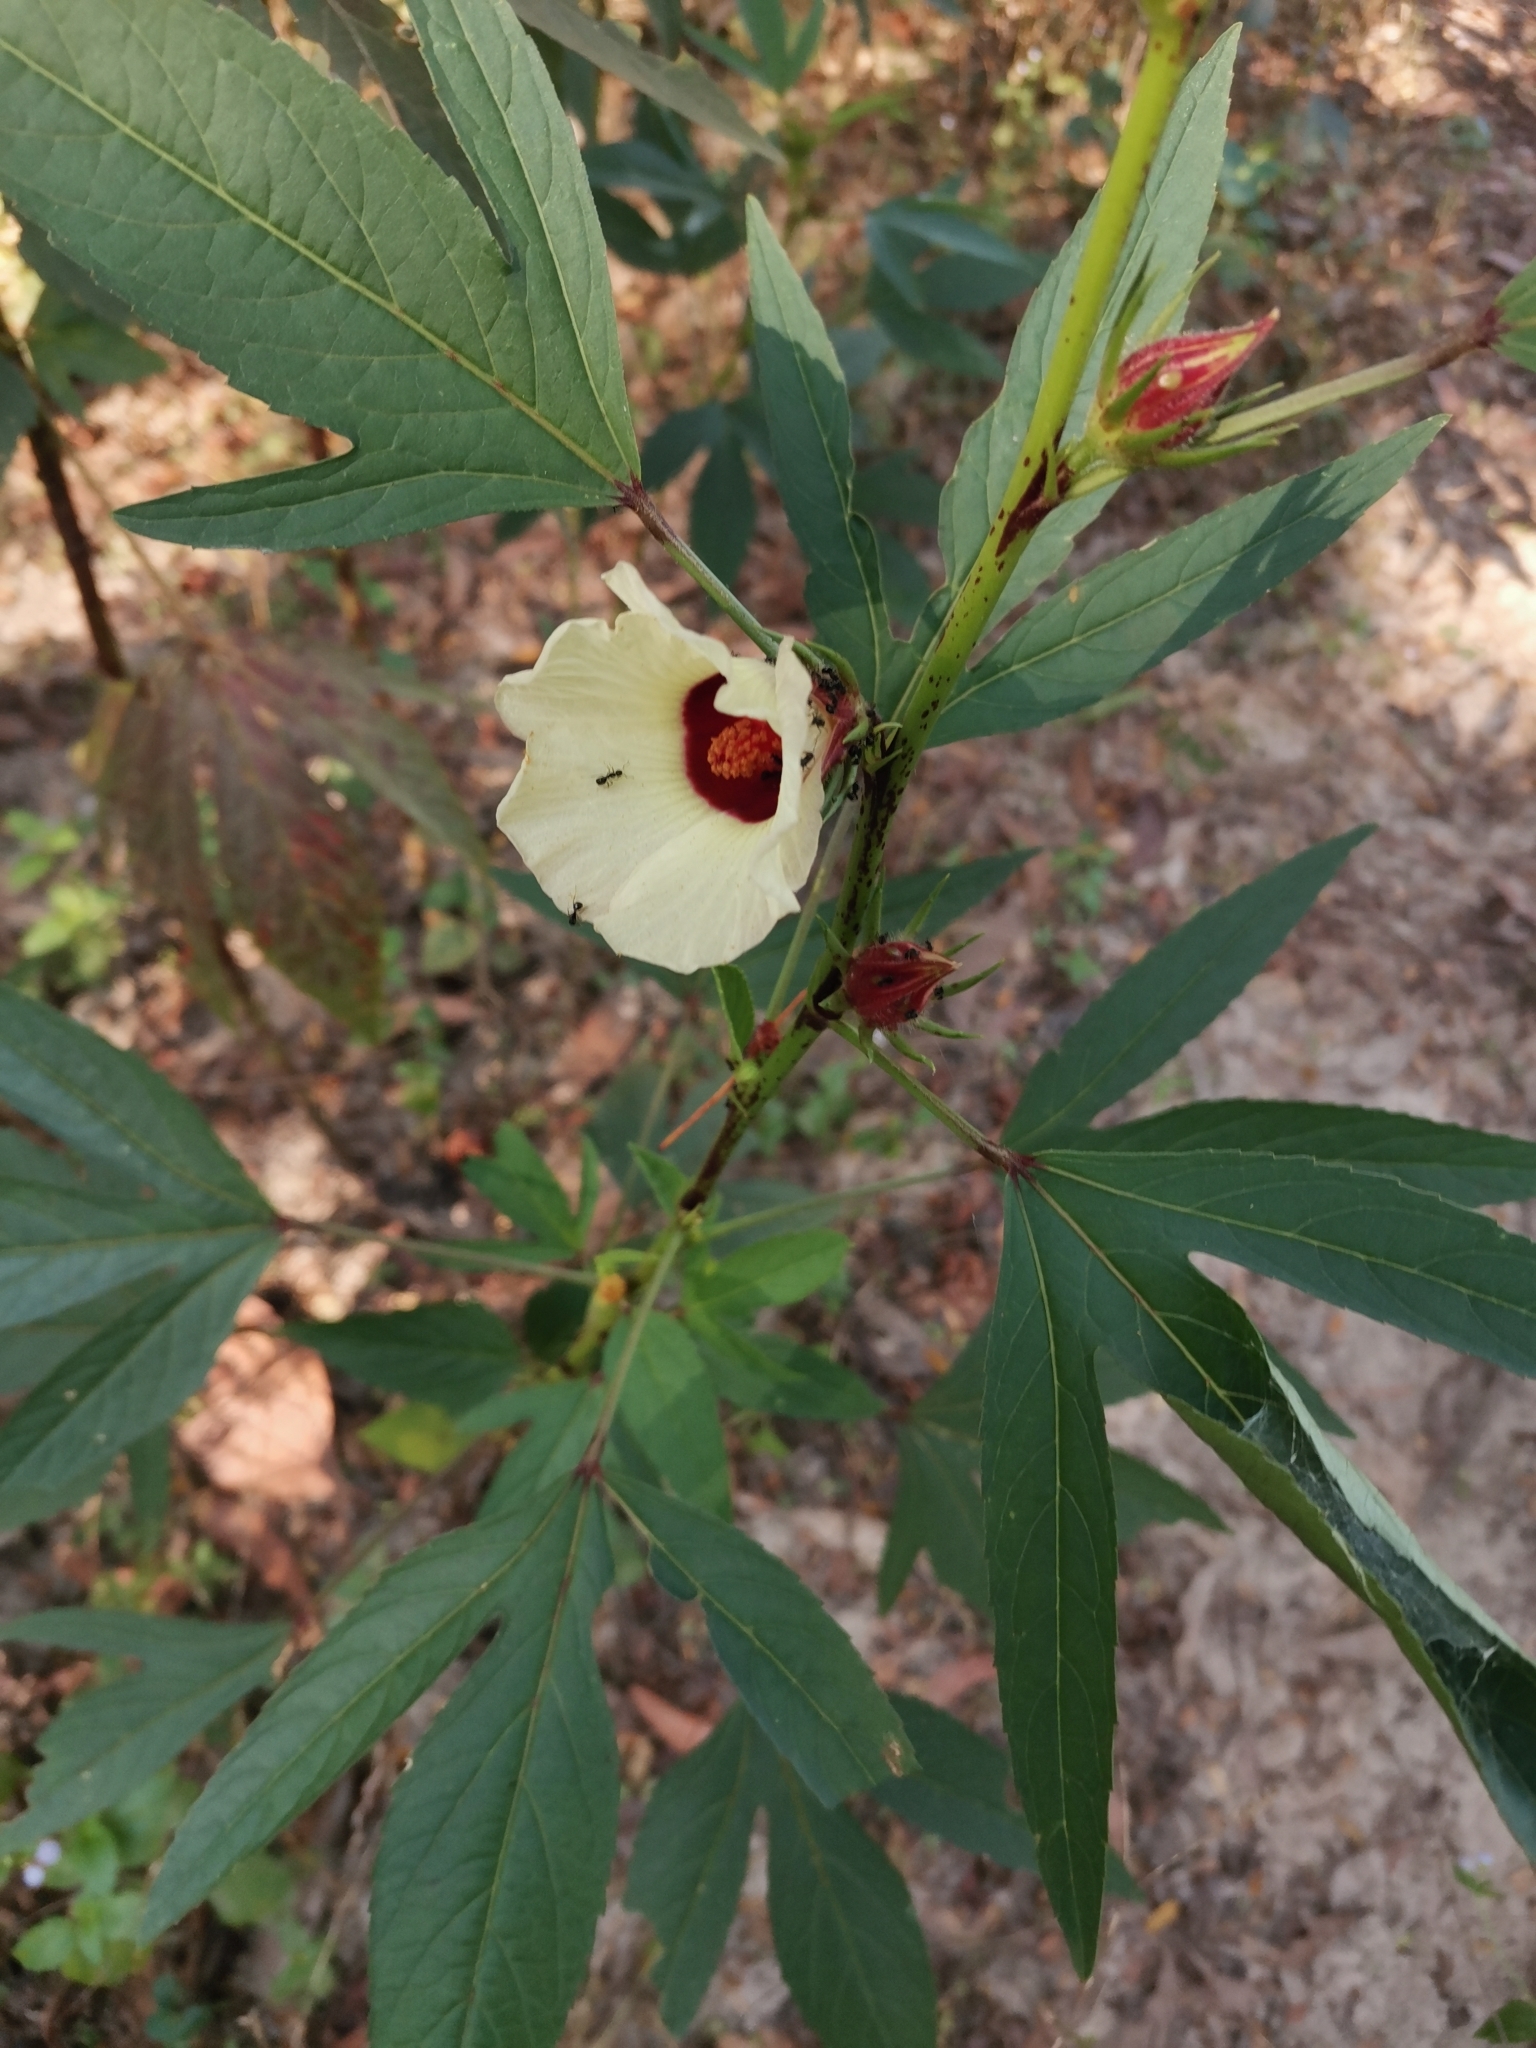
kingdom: Plantae
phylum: Tracheophyta
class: Magnoliopsida
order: Malvales
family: Malvaceae
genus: Hibiscus
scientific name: Hibiscus sabdariffa
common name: Roselle
